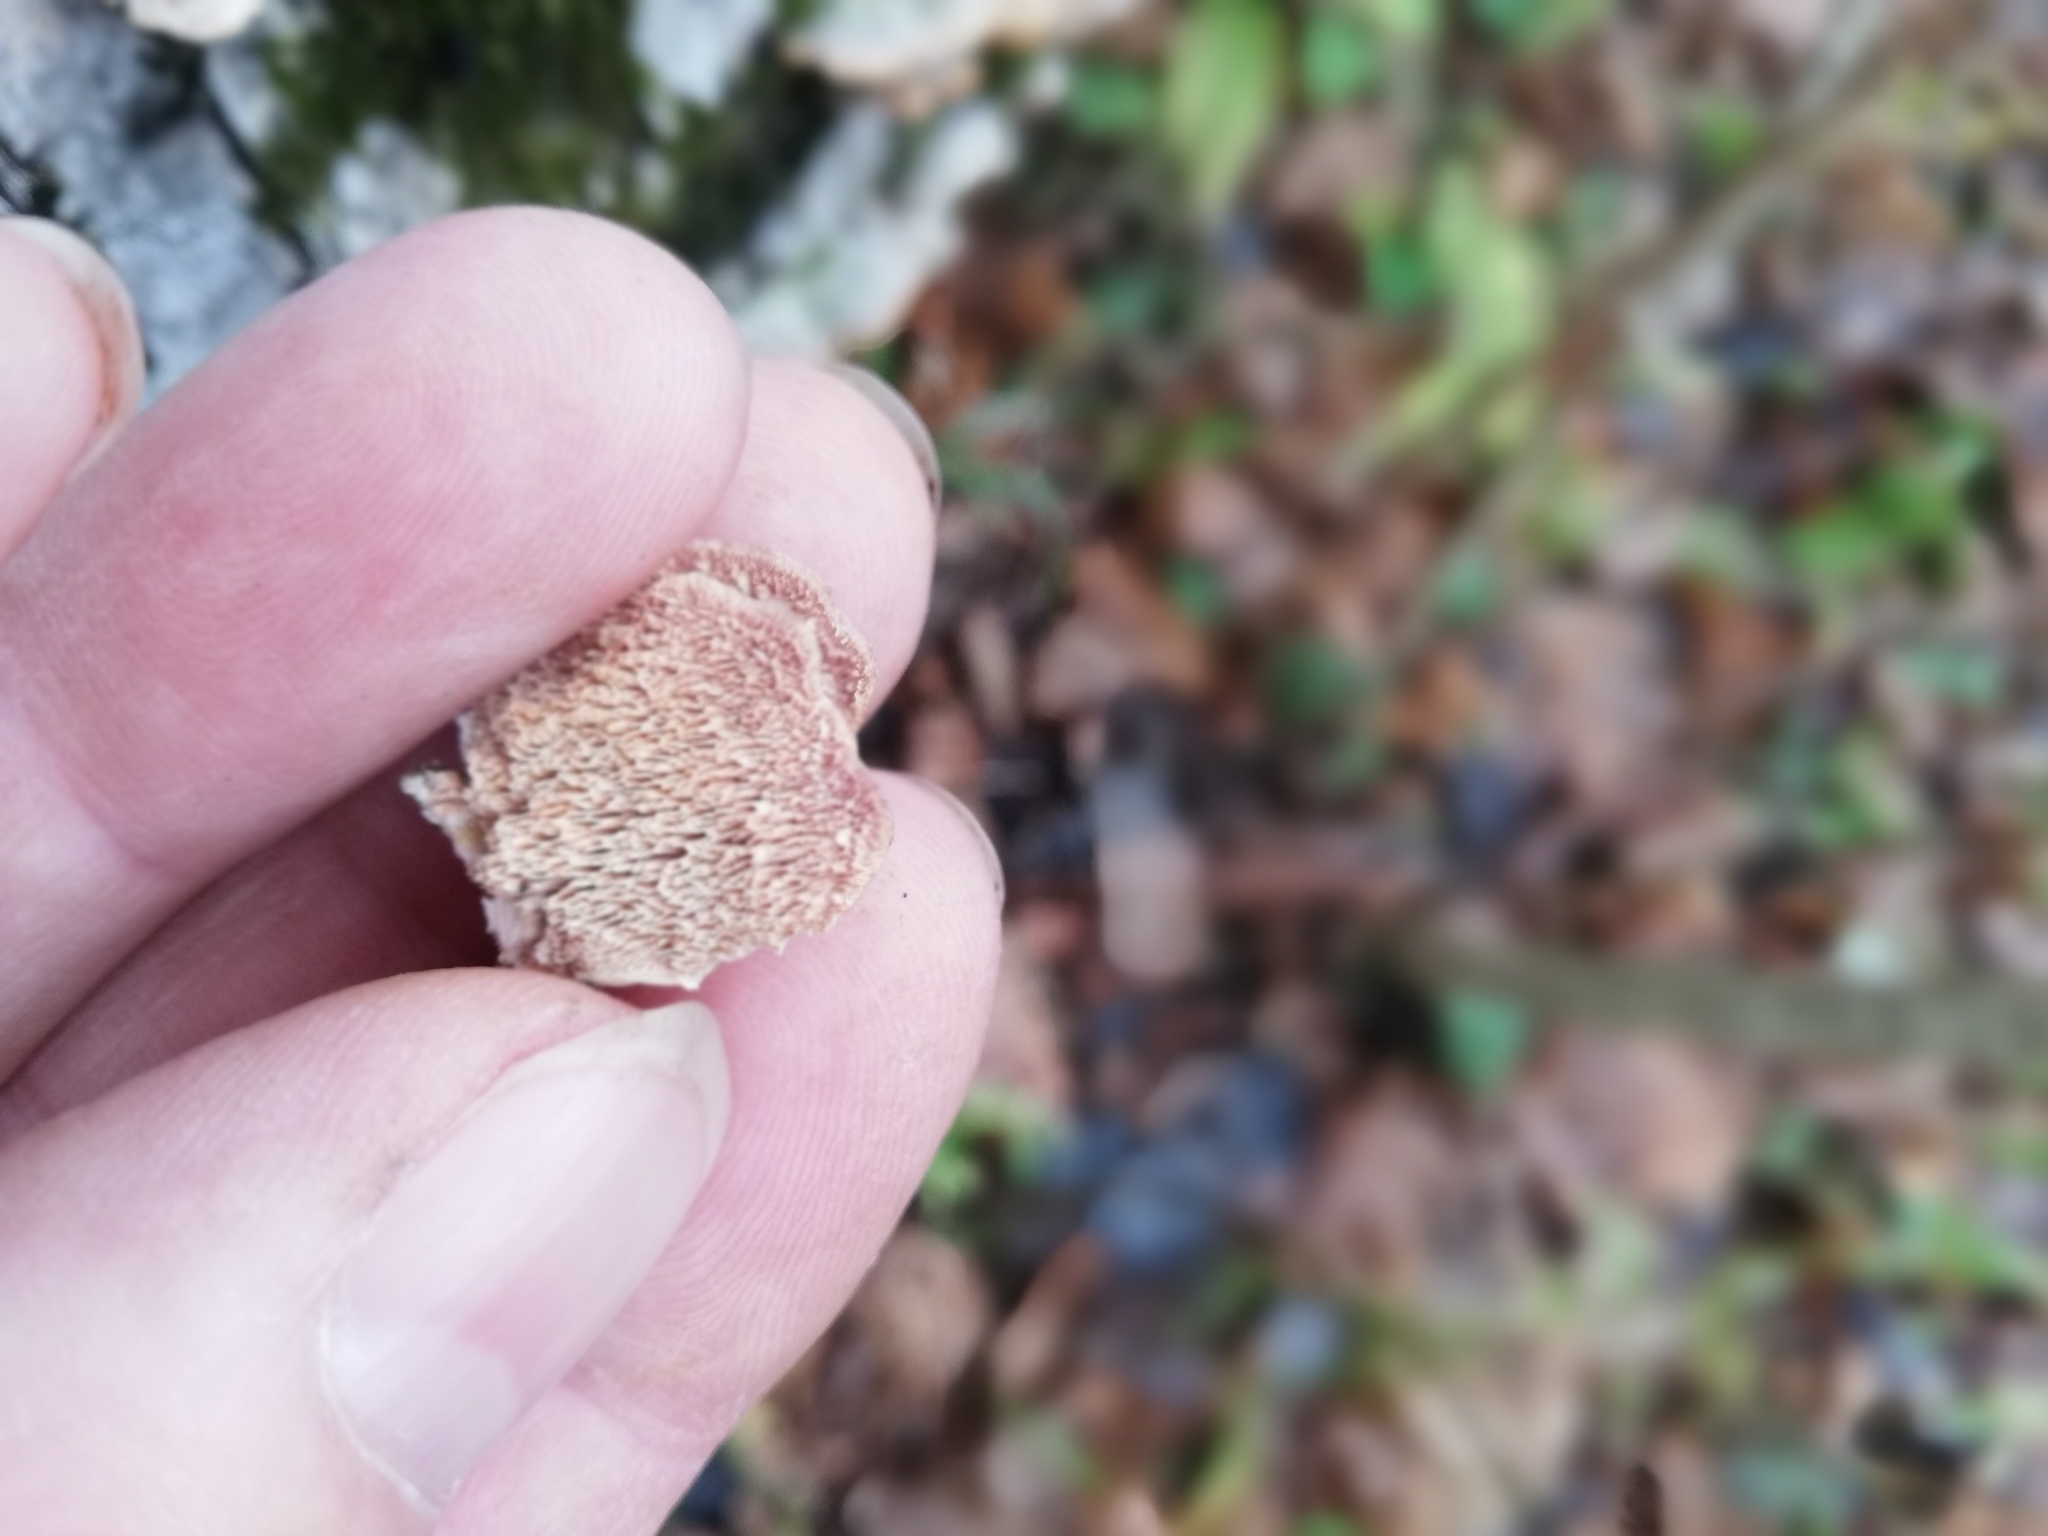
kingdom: Fungi
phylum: Basidiomycota
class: Agaricomycetes
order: Hymenochaetales
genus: Trichaptum
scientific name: Trichaptum biforme
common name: Violet-toothed polypore
